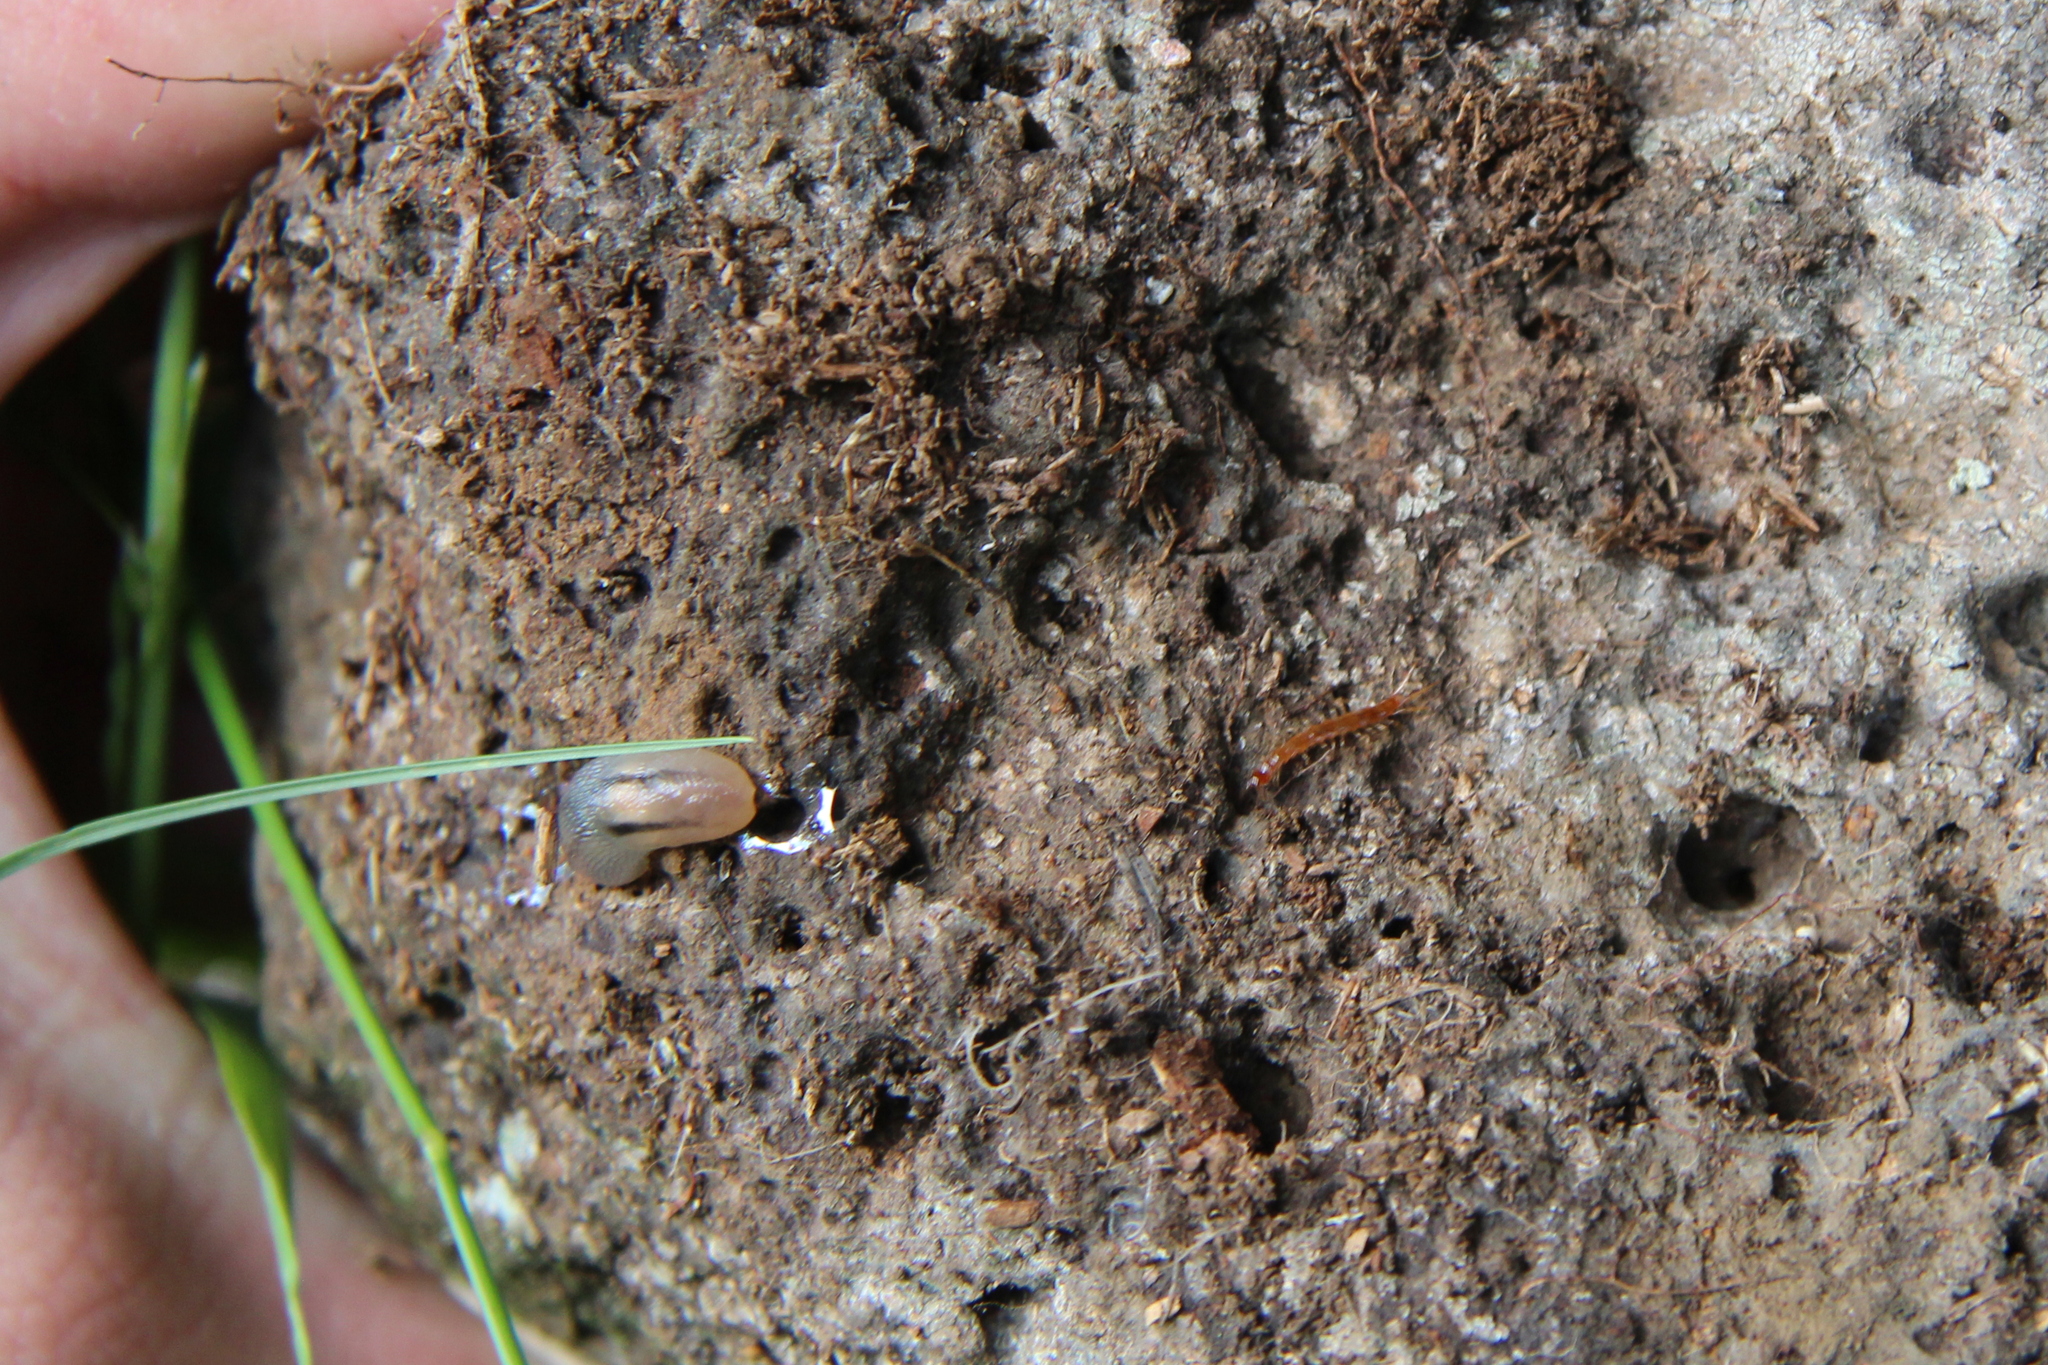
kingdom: Animalia
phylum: Mollusca
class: Gastropoda
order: Stylommatophora
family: Limacidae
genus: Ambigolimax
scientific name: Ambigolimax
